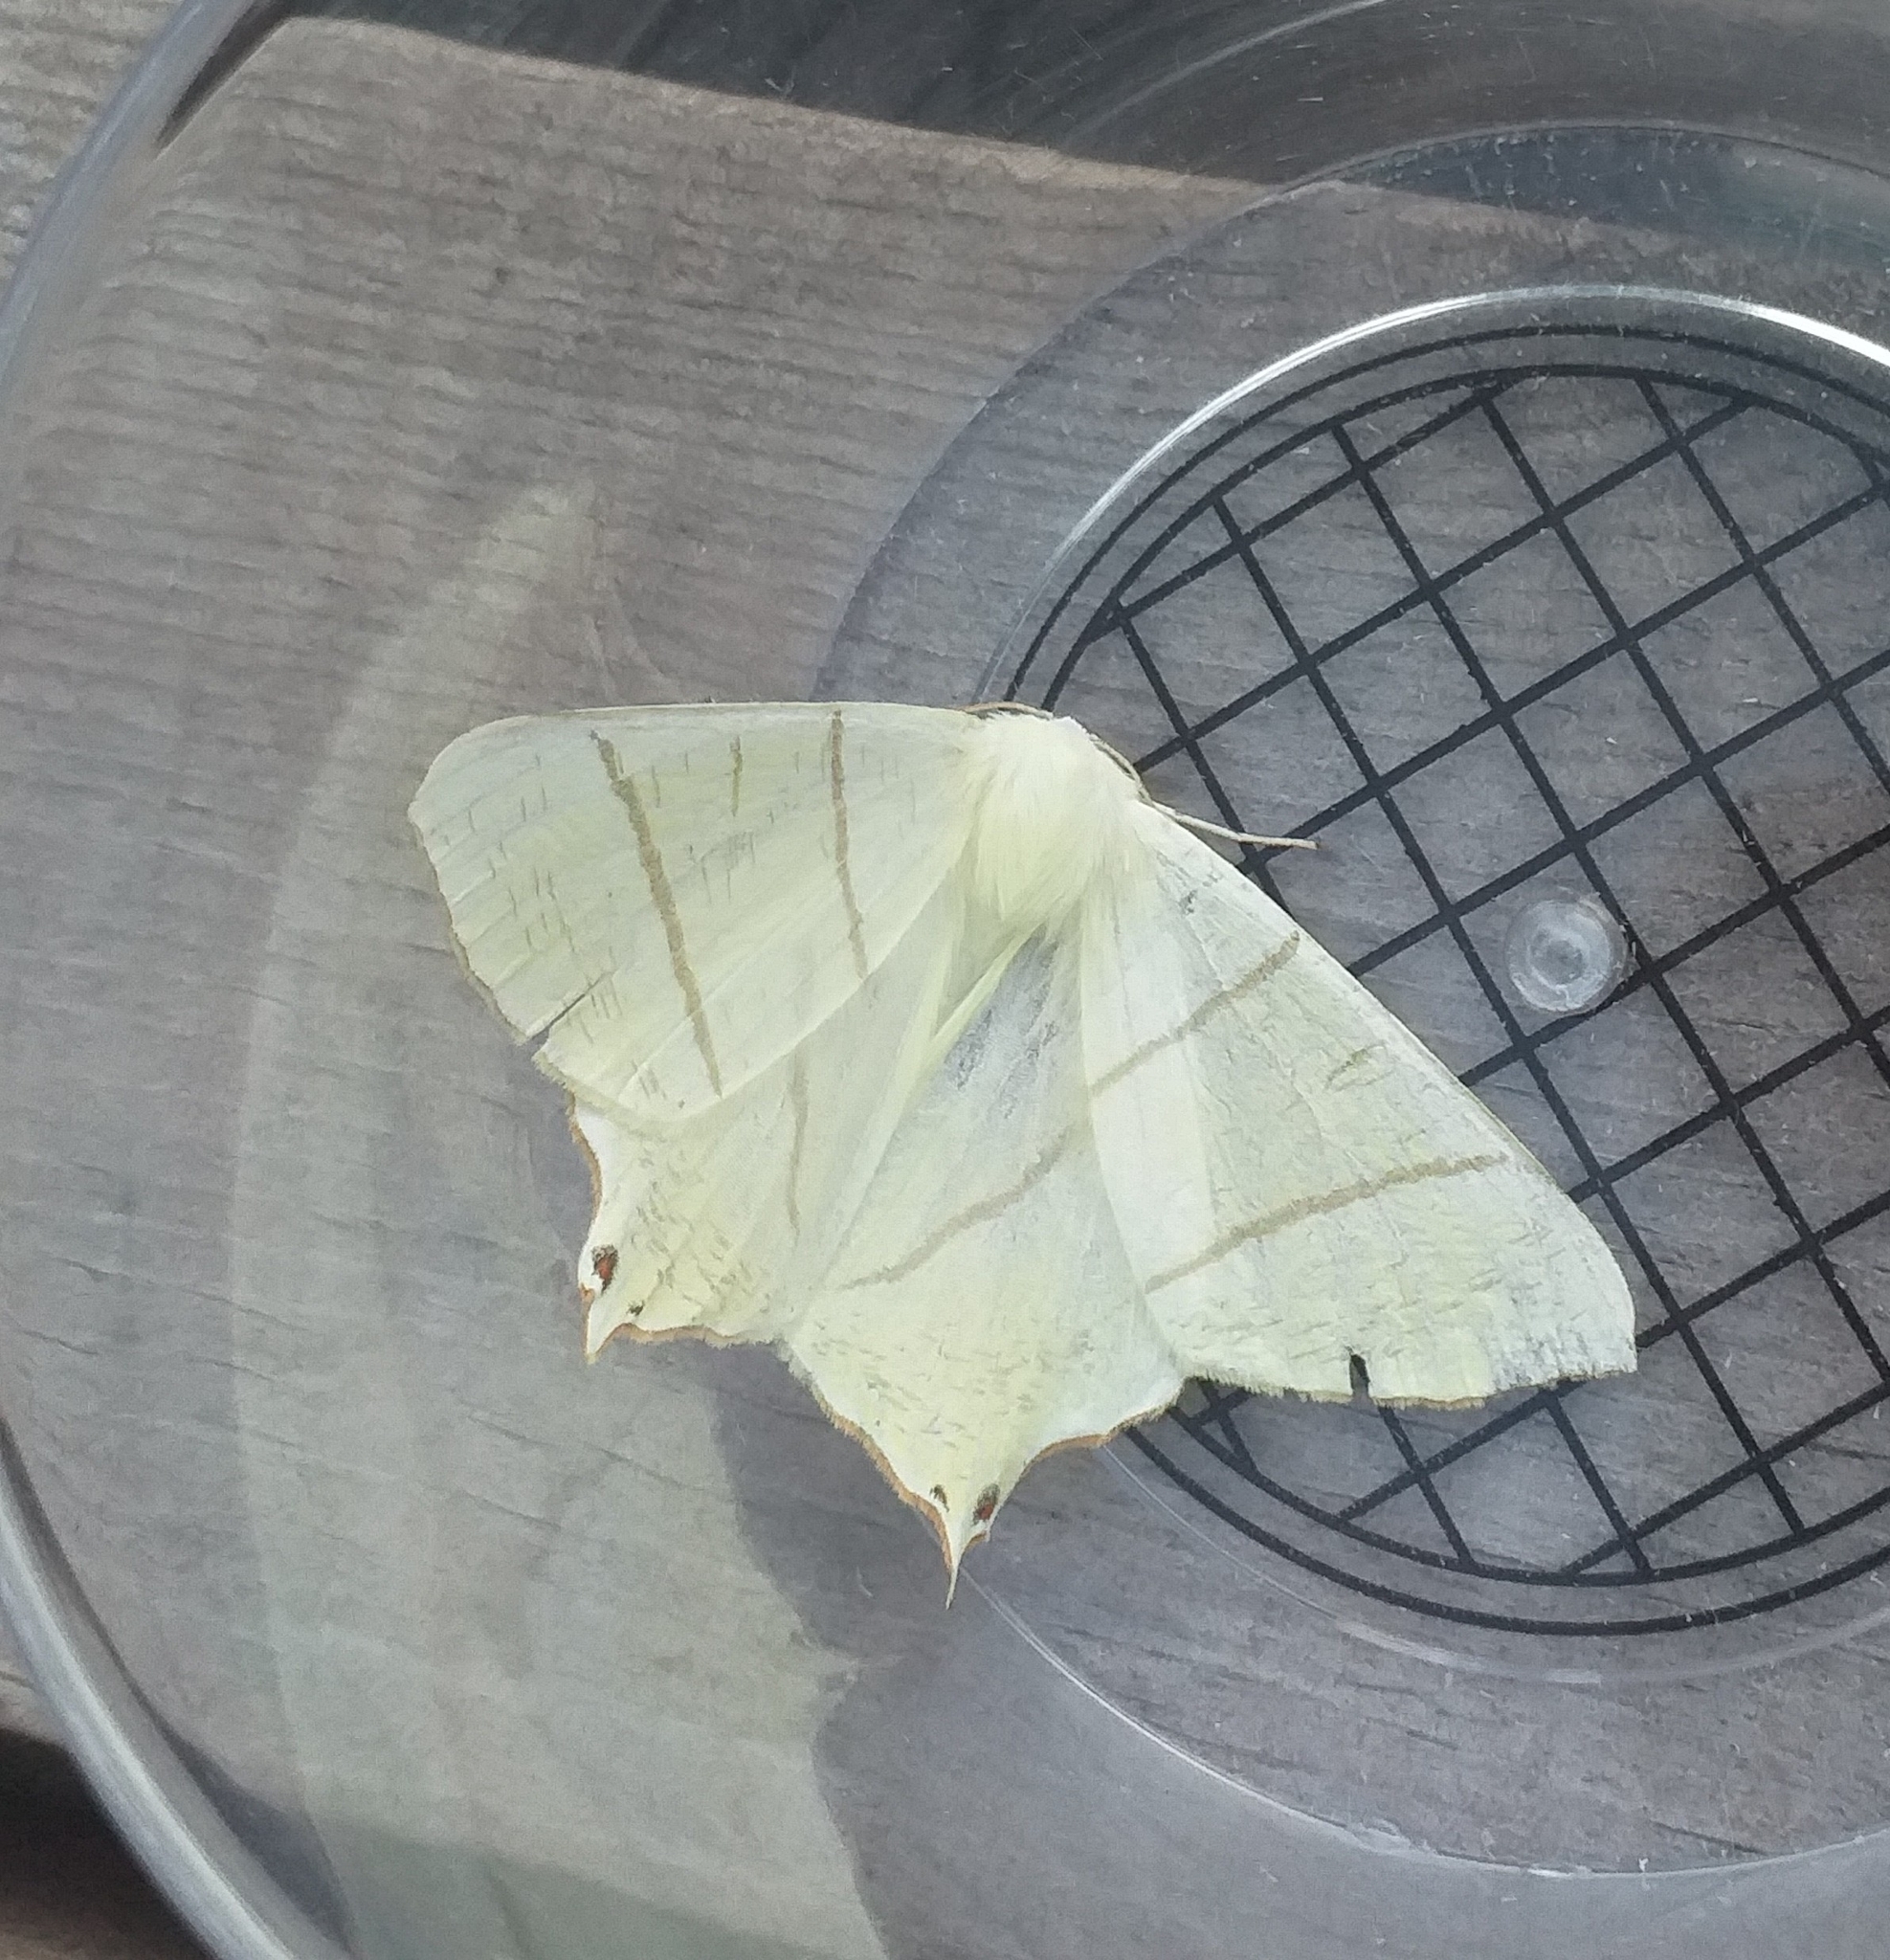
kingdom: Animalia
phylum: Arthropoda
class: Insecta
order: Lepidoptera
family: Geometridae
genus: Ourapteryx
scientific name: Ourapteryx sambucaria
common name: Swallow-tailed moth
